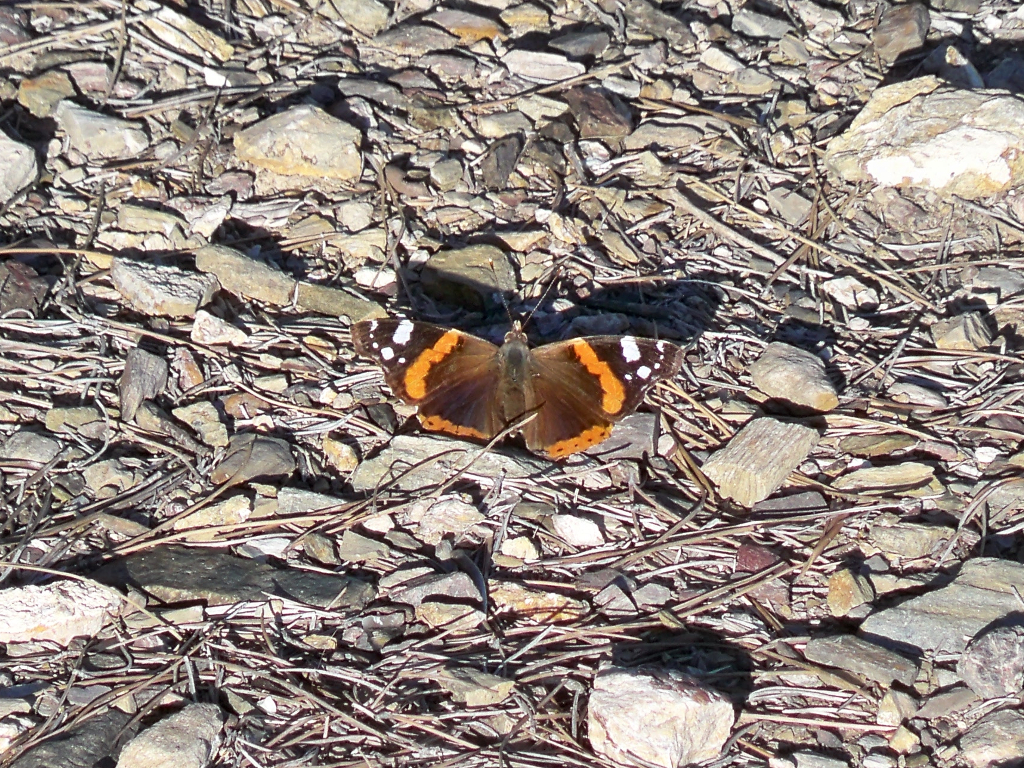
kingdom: Animalia
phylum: Arthropoda
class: Insecta
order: Lepidoptera
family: Nymphalidae
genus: Vanessa
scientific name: Vanessa atalanta
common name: Red admiral
